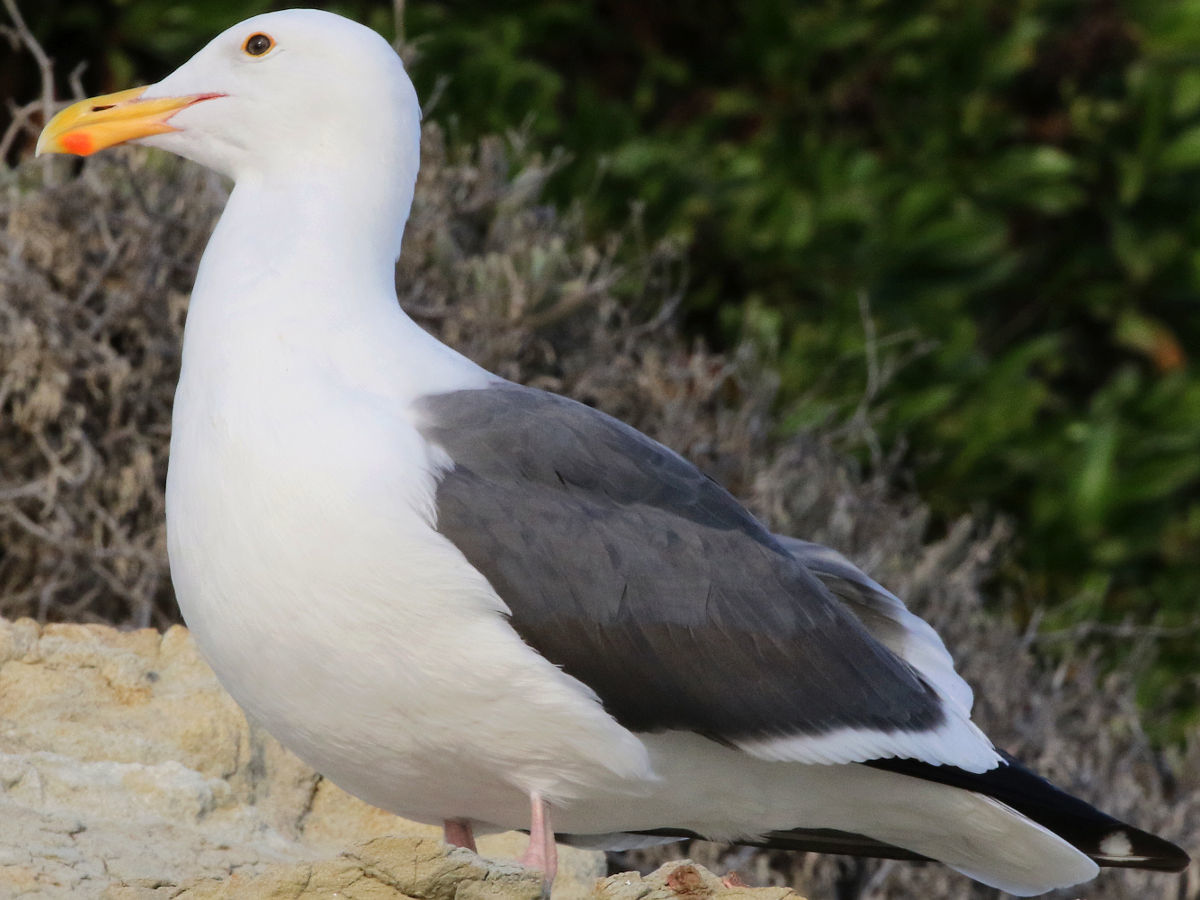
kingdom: Animalia
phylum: Chordata
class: Aves
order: Charadriiformes
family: Laridae
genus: Larus
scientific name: Larus occidentalis
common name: Western gull
